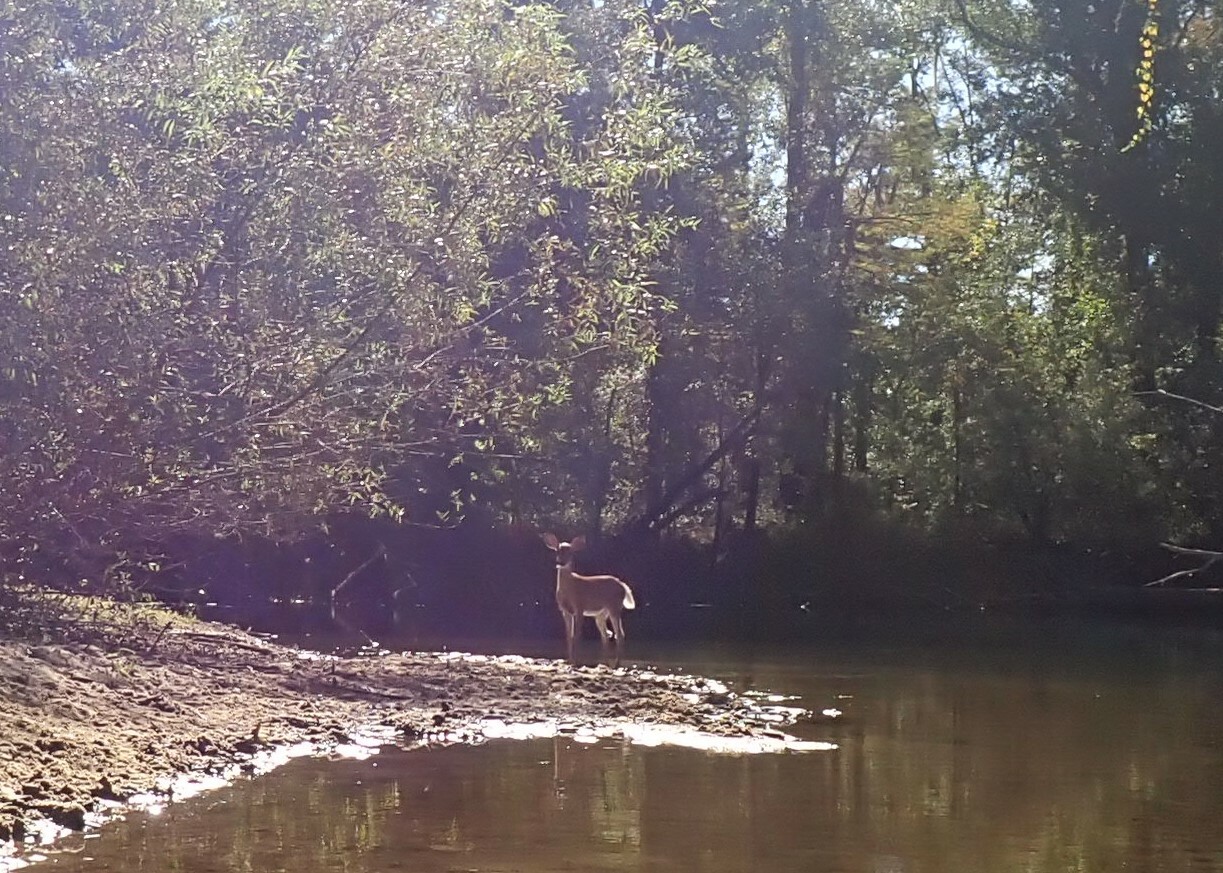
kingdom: Animalia
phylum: Chordata
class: Mammalia
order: Artiodactyla
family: Cervidae
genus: Odocoileus
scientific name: Odocoileus virginianus
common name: White-tailed deer
